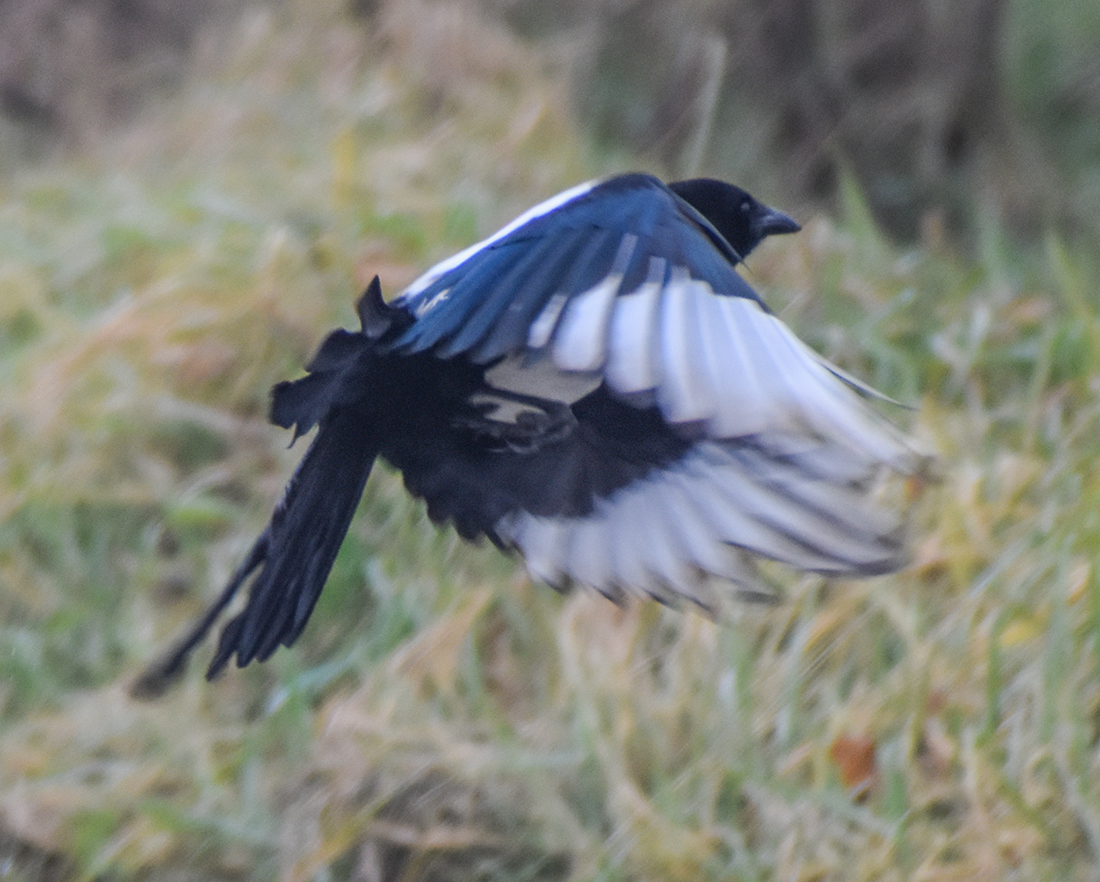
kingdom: Animalia
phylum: Chordata
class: Aves
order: Passeriformes
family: Corvidae
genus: Pica
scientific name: Pica pica
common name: Eurasian magpie
